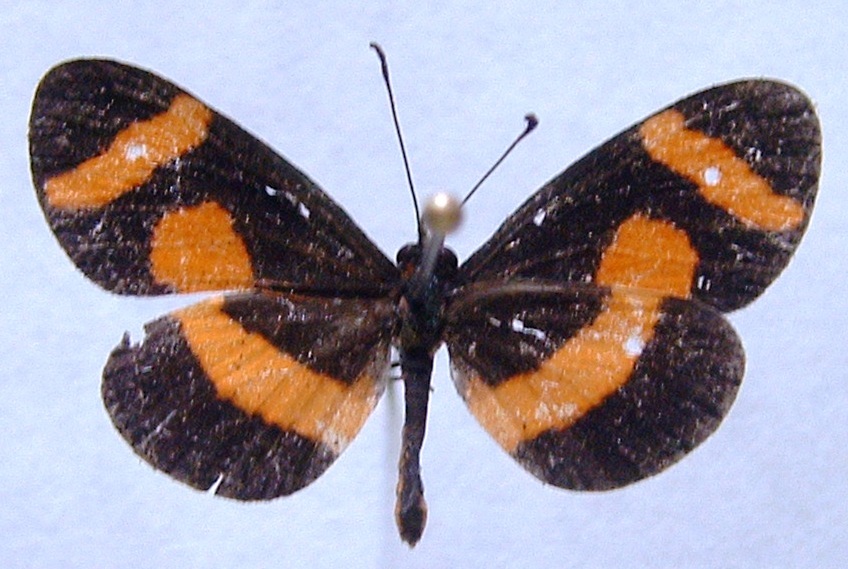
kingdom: Animalia
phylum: Arthropoda
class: Insecta
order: Lepidoptera
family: Nymphalidae
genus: Microtia
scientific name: Microtia elva
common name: Elf
